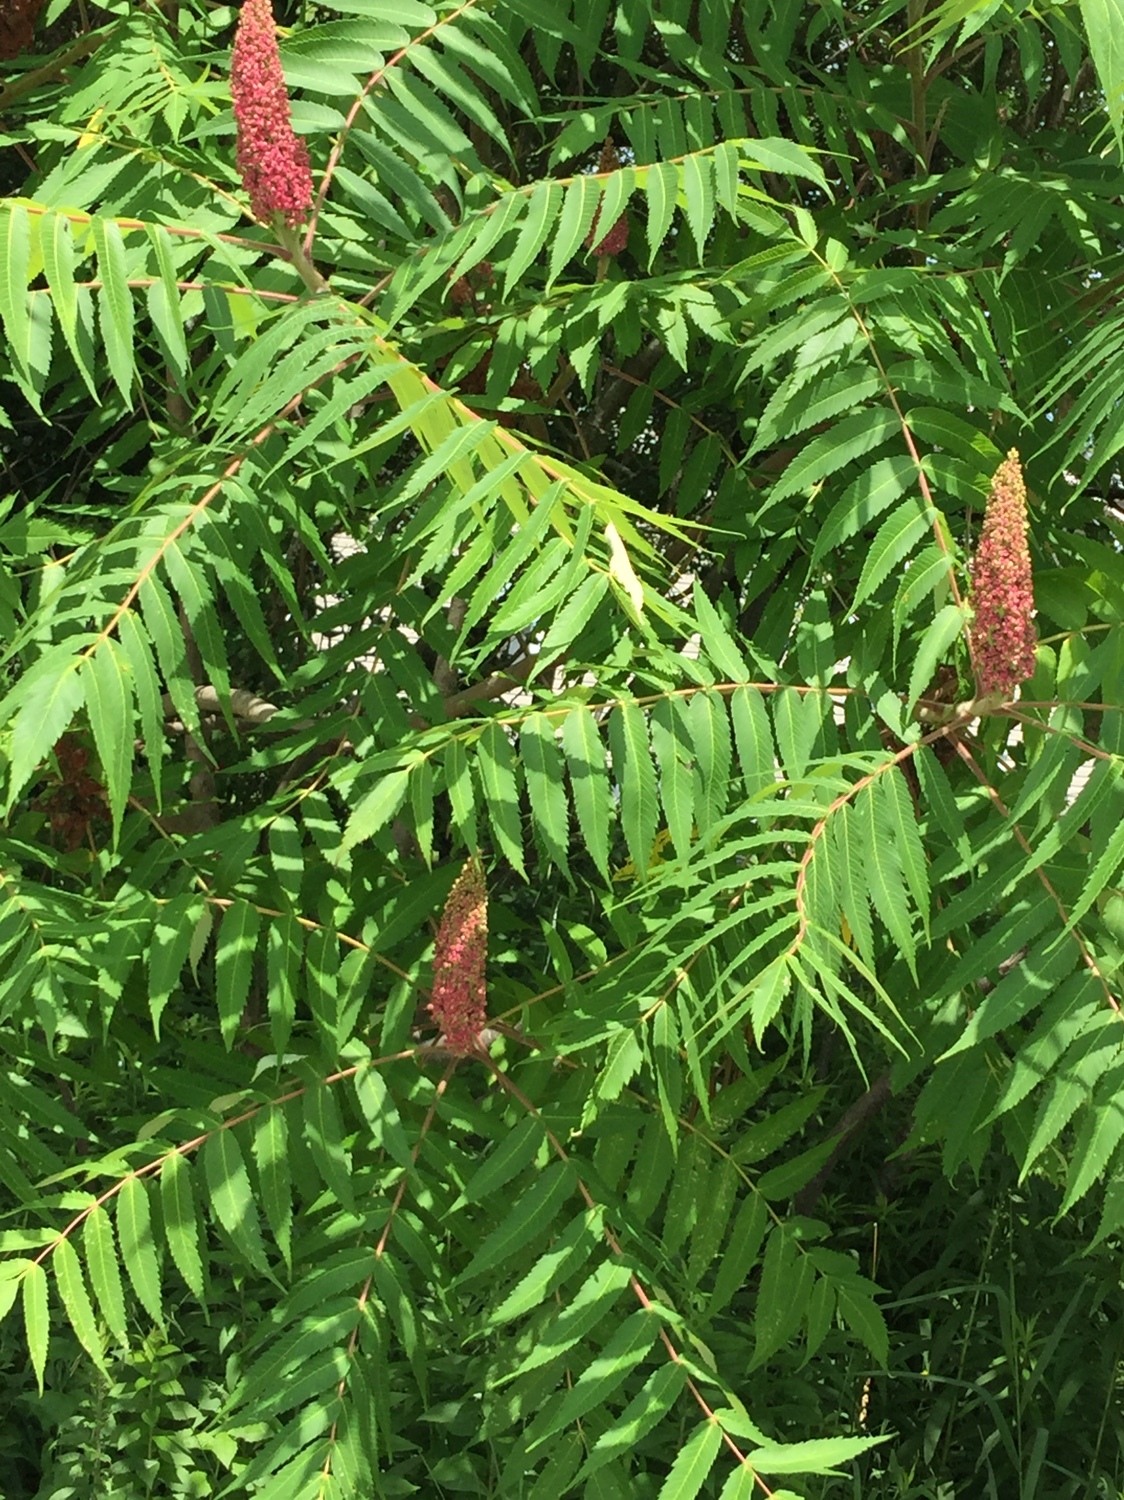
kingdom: Plantae
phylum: Tracheophyta
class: Magnoliopsida
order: Sapindales
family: Anacardiaceae
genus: Rhus
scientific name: Rhus typhina
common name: Staghorn sumac
